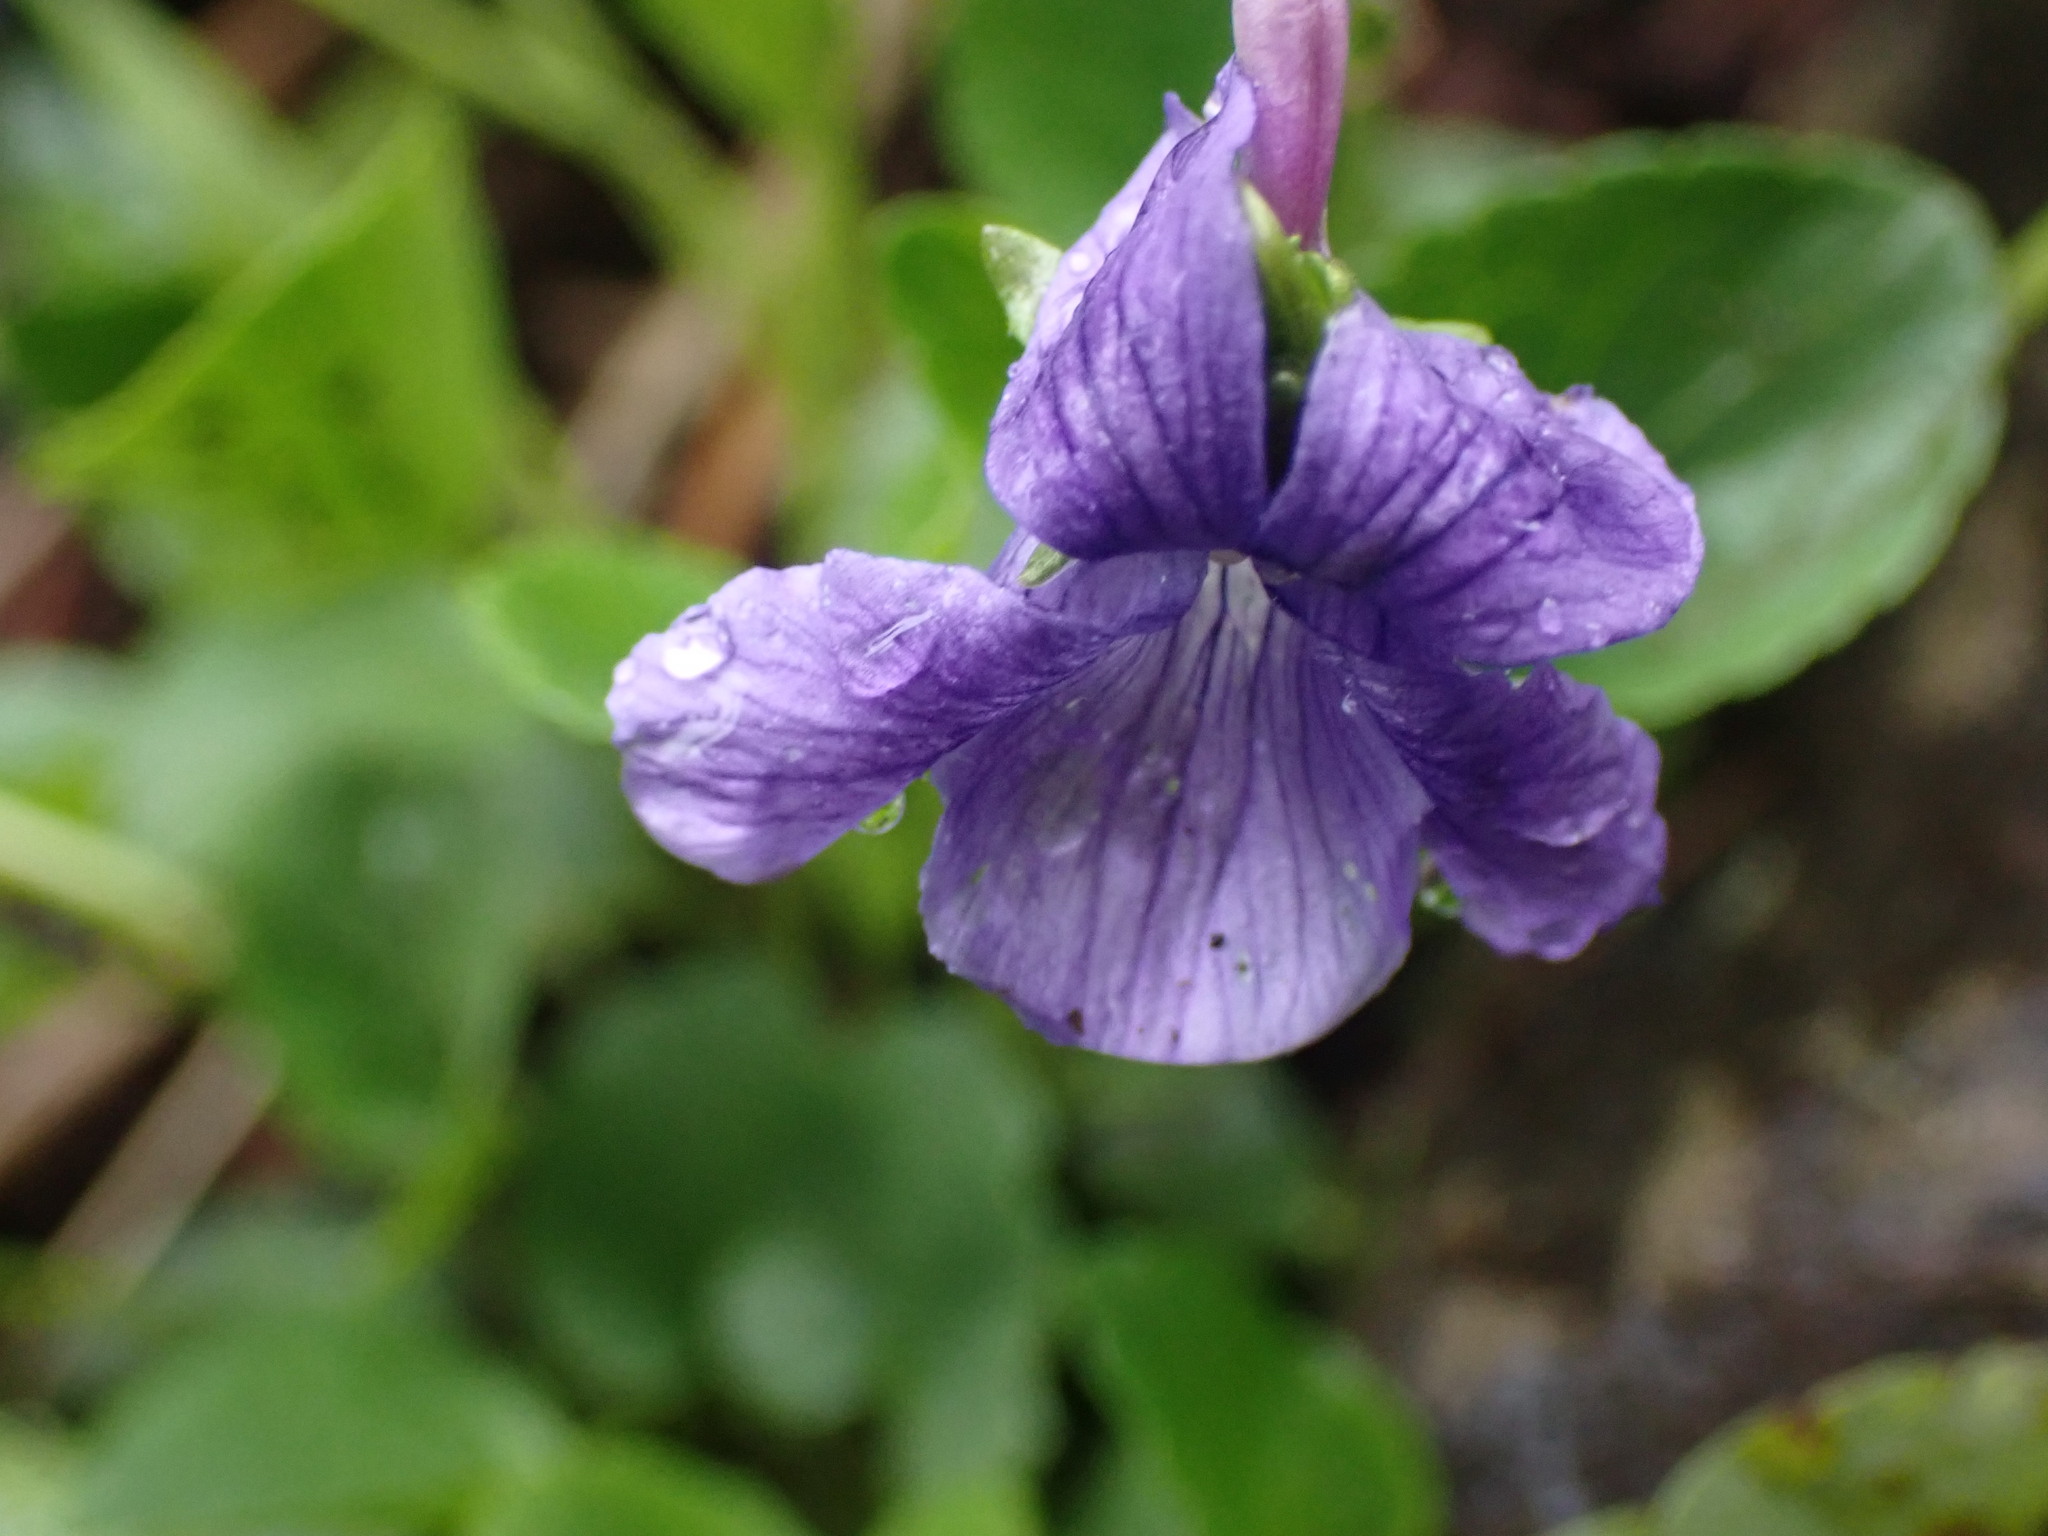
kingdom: Plantae
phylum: Tracheophyta
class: Magnoliopsida
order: Malpighiales
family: Violaceae
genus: Viola
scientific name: Viola adunca
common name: Sand violet
